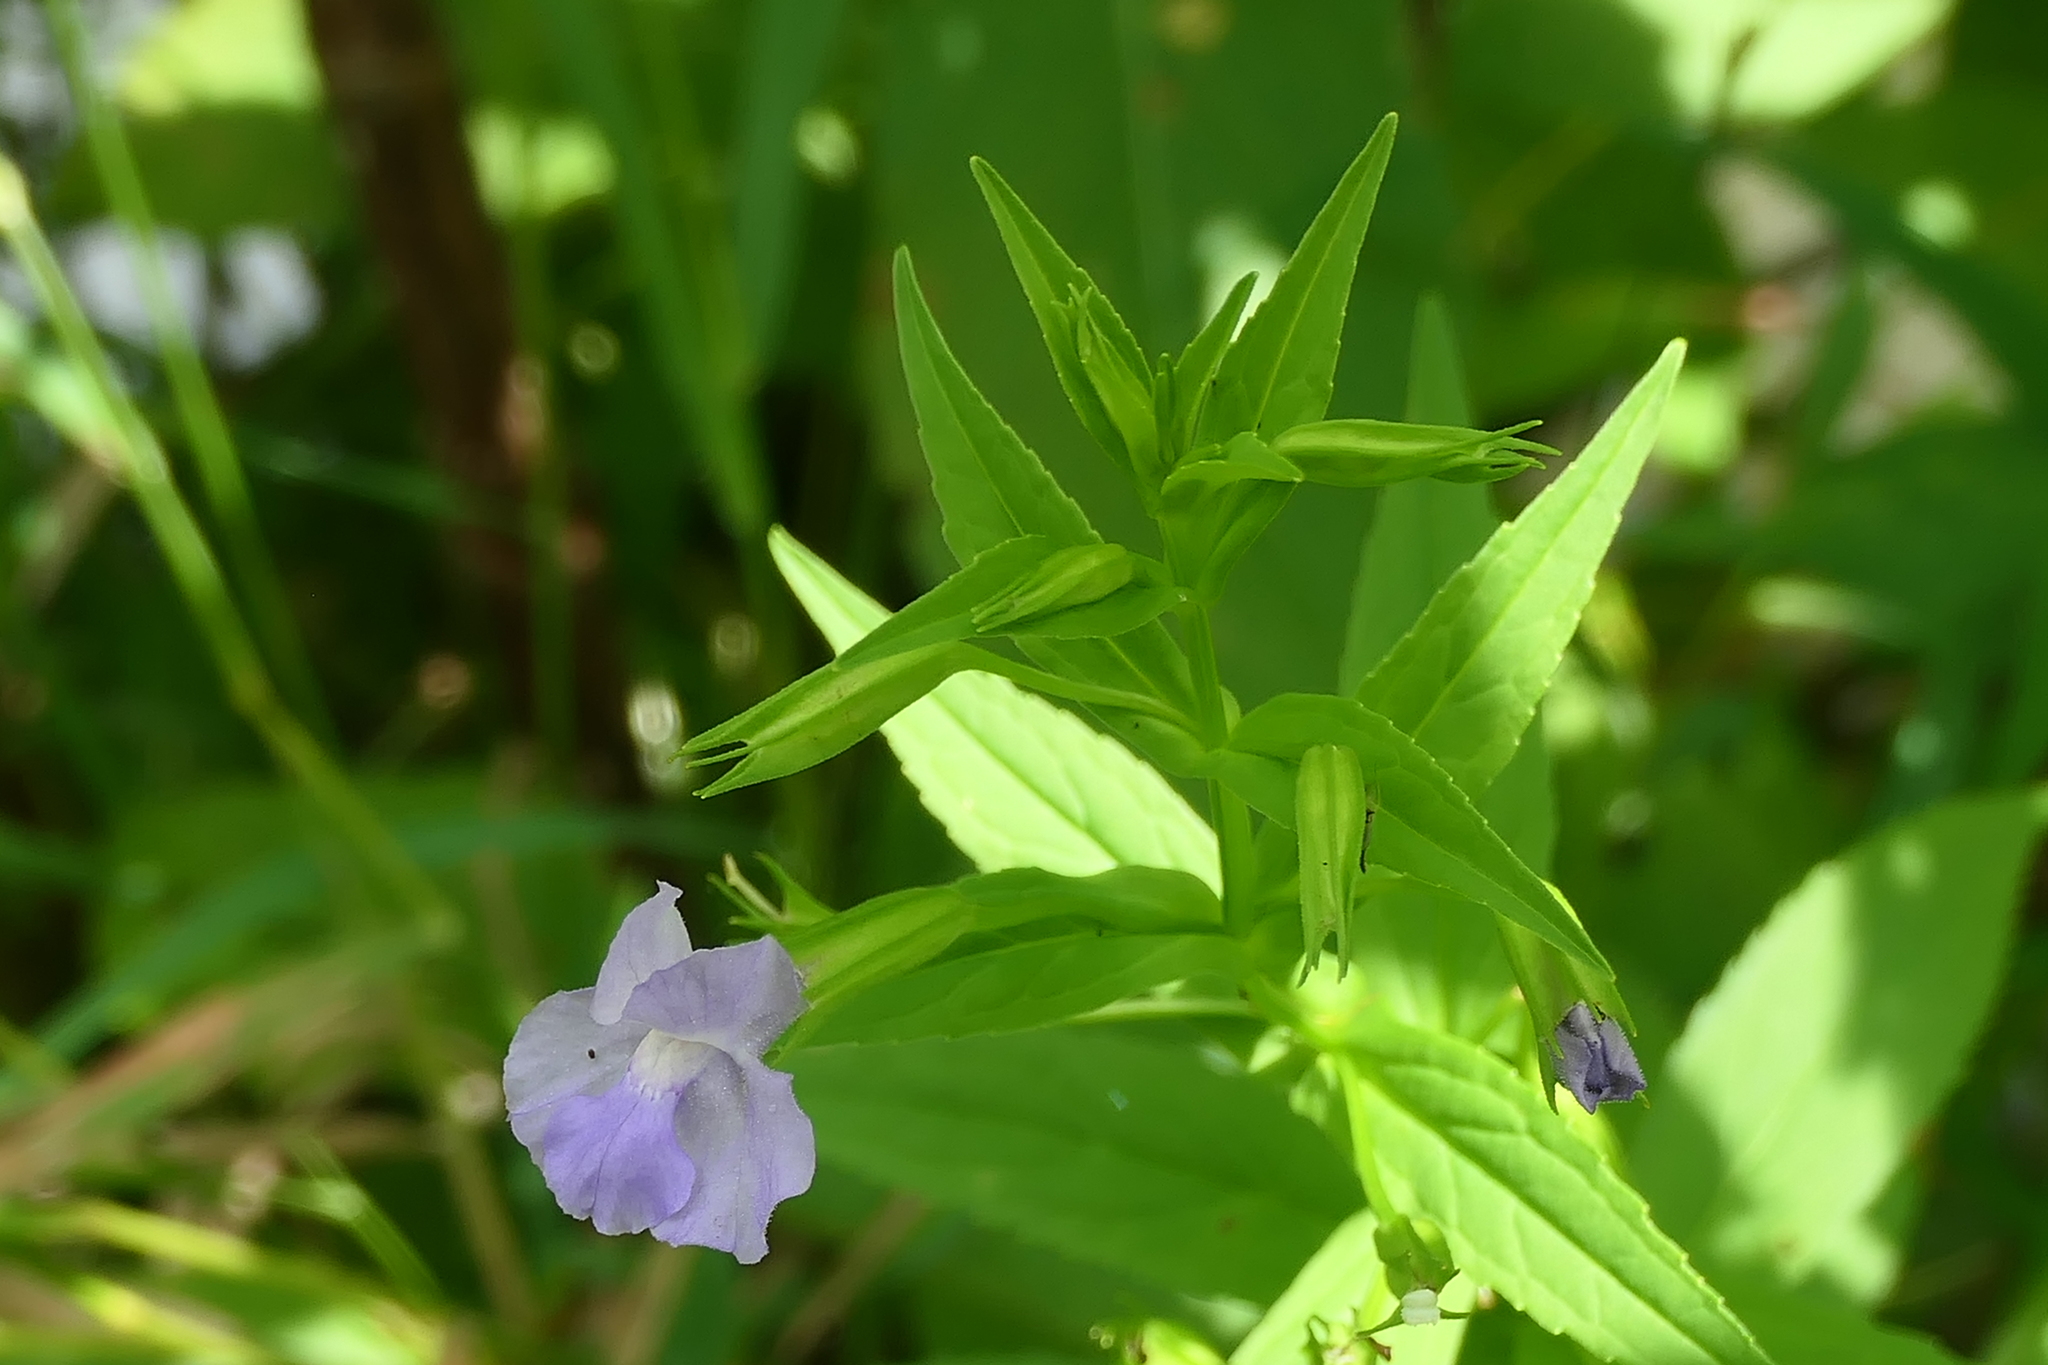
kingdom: Plantae
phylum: Tracheophyta
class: Magnoliopsida
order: Lamiales
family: Phrymaceae
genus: Mimulus
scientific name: Mimulus ringens
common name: Allegheny monkeyflower
